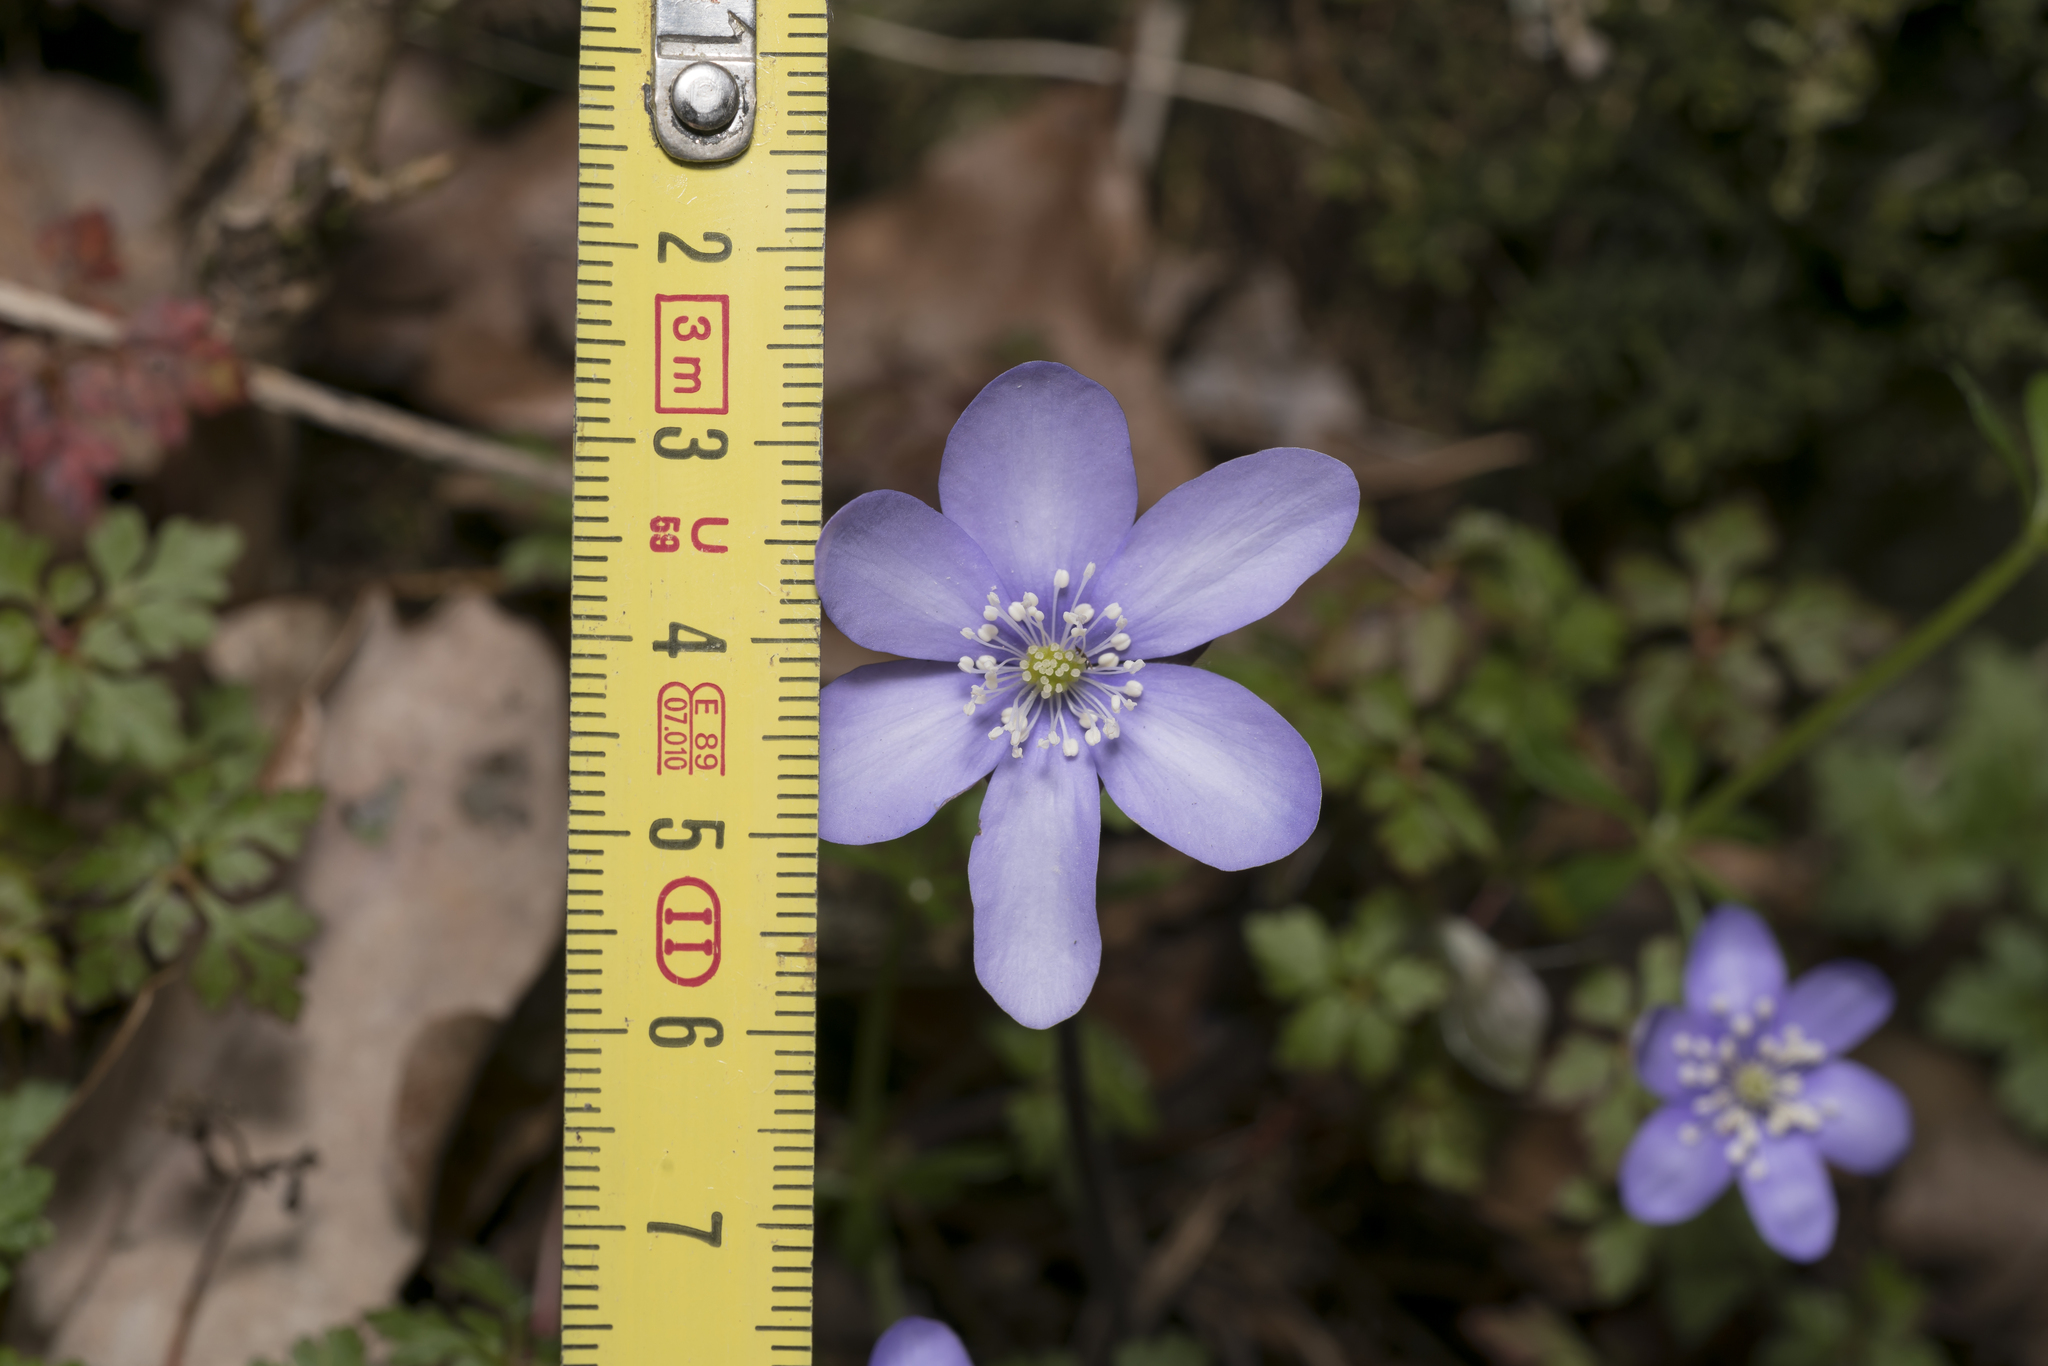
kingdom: Plantae
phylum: Tracheophyta
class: Magnoliopsida
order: Ranunculales
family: Ranunculaceae
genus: Hepatica
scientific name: Hepatica nobilis
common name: Liverleaf
